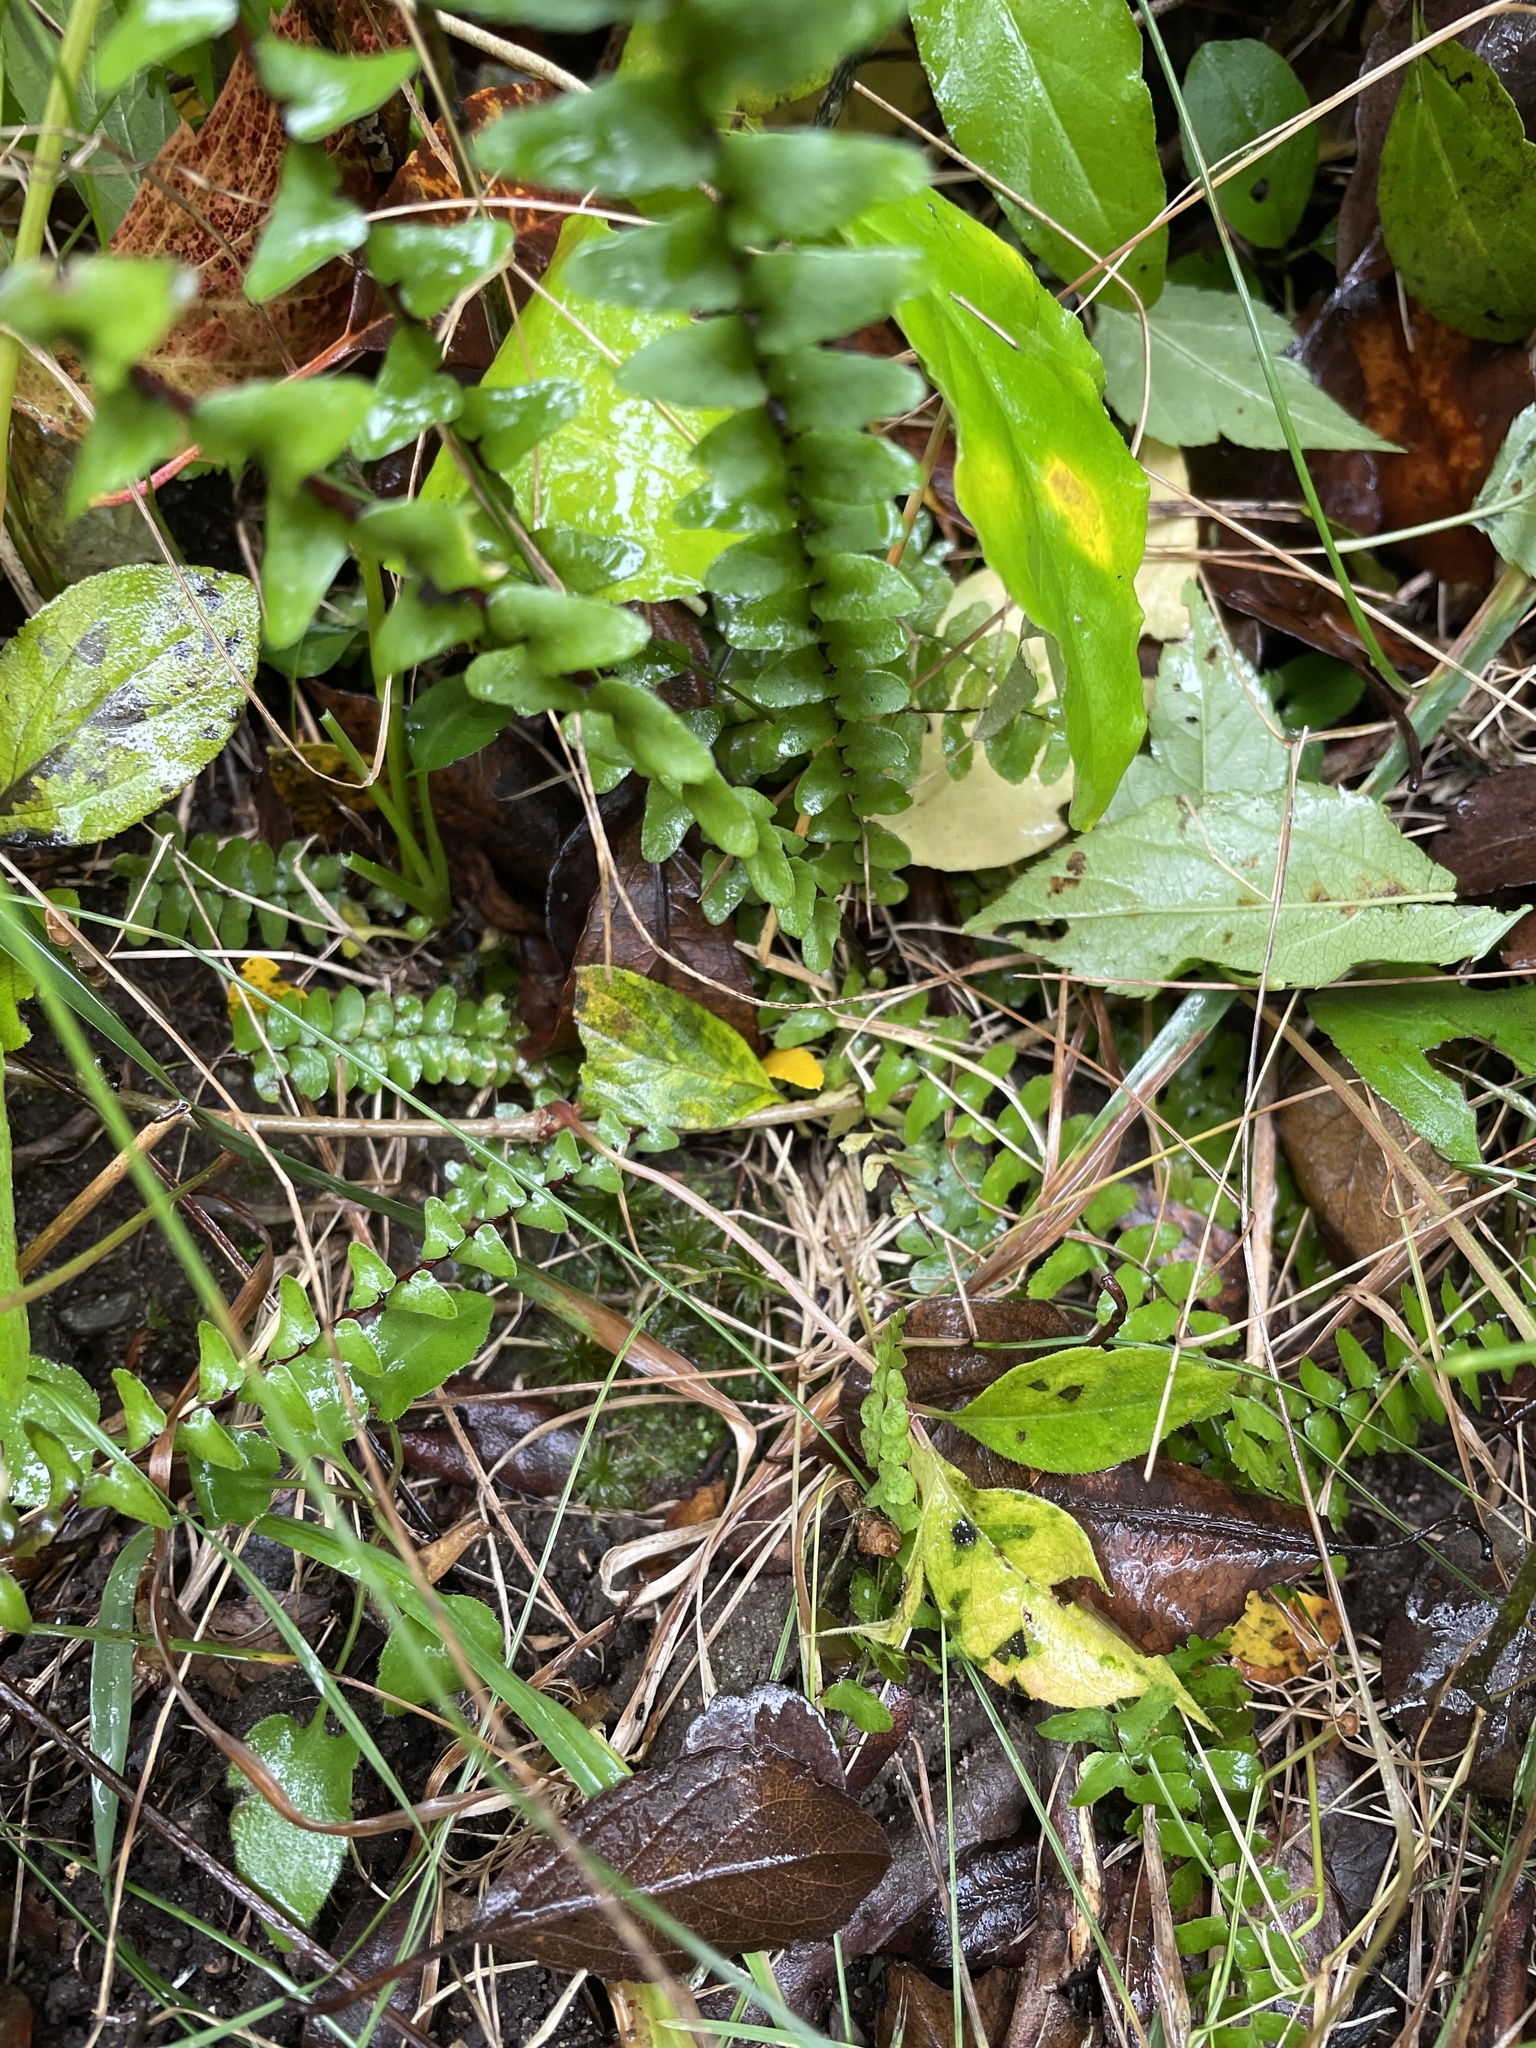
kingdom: Plantae
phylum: Tracheophyta
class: Polypodiopsida
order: Polypodiales
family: Aspleniaceae
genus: Asplenium
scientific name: Asplenium platyneuron
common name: Ebony spleenwort
